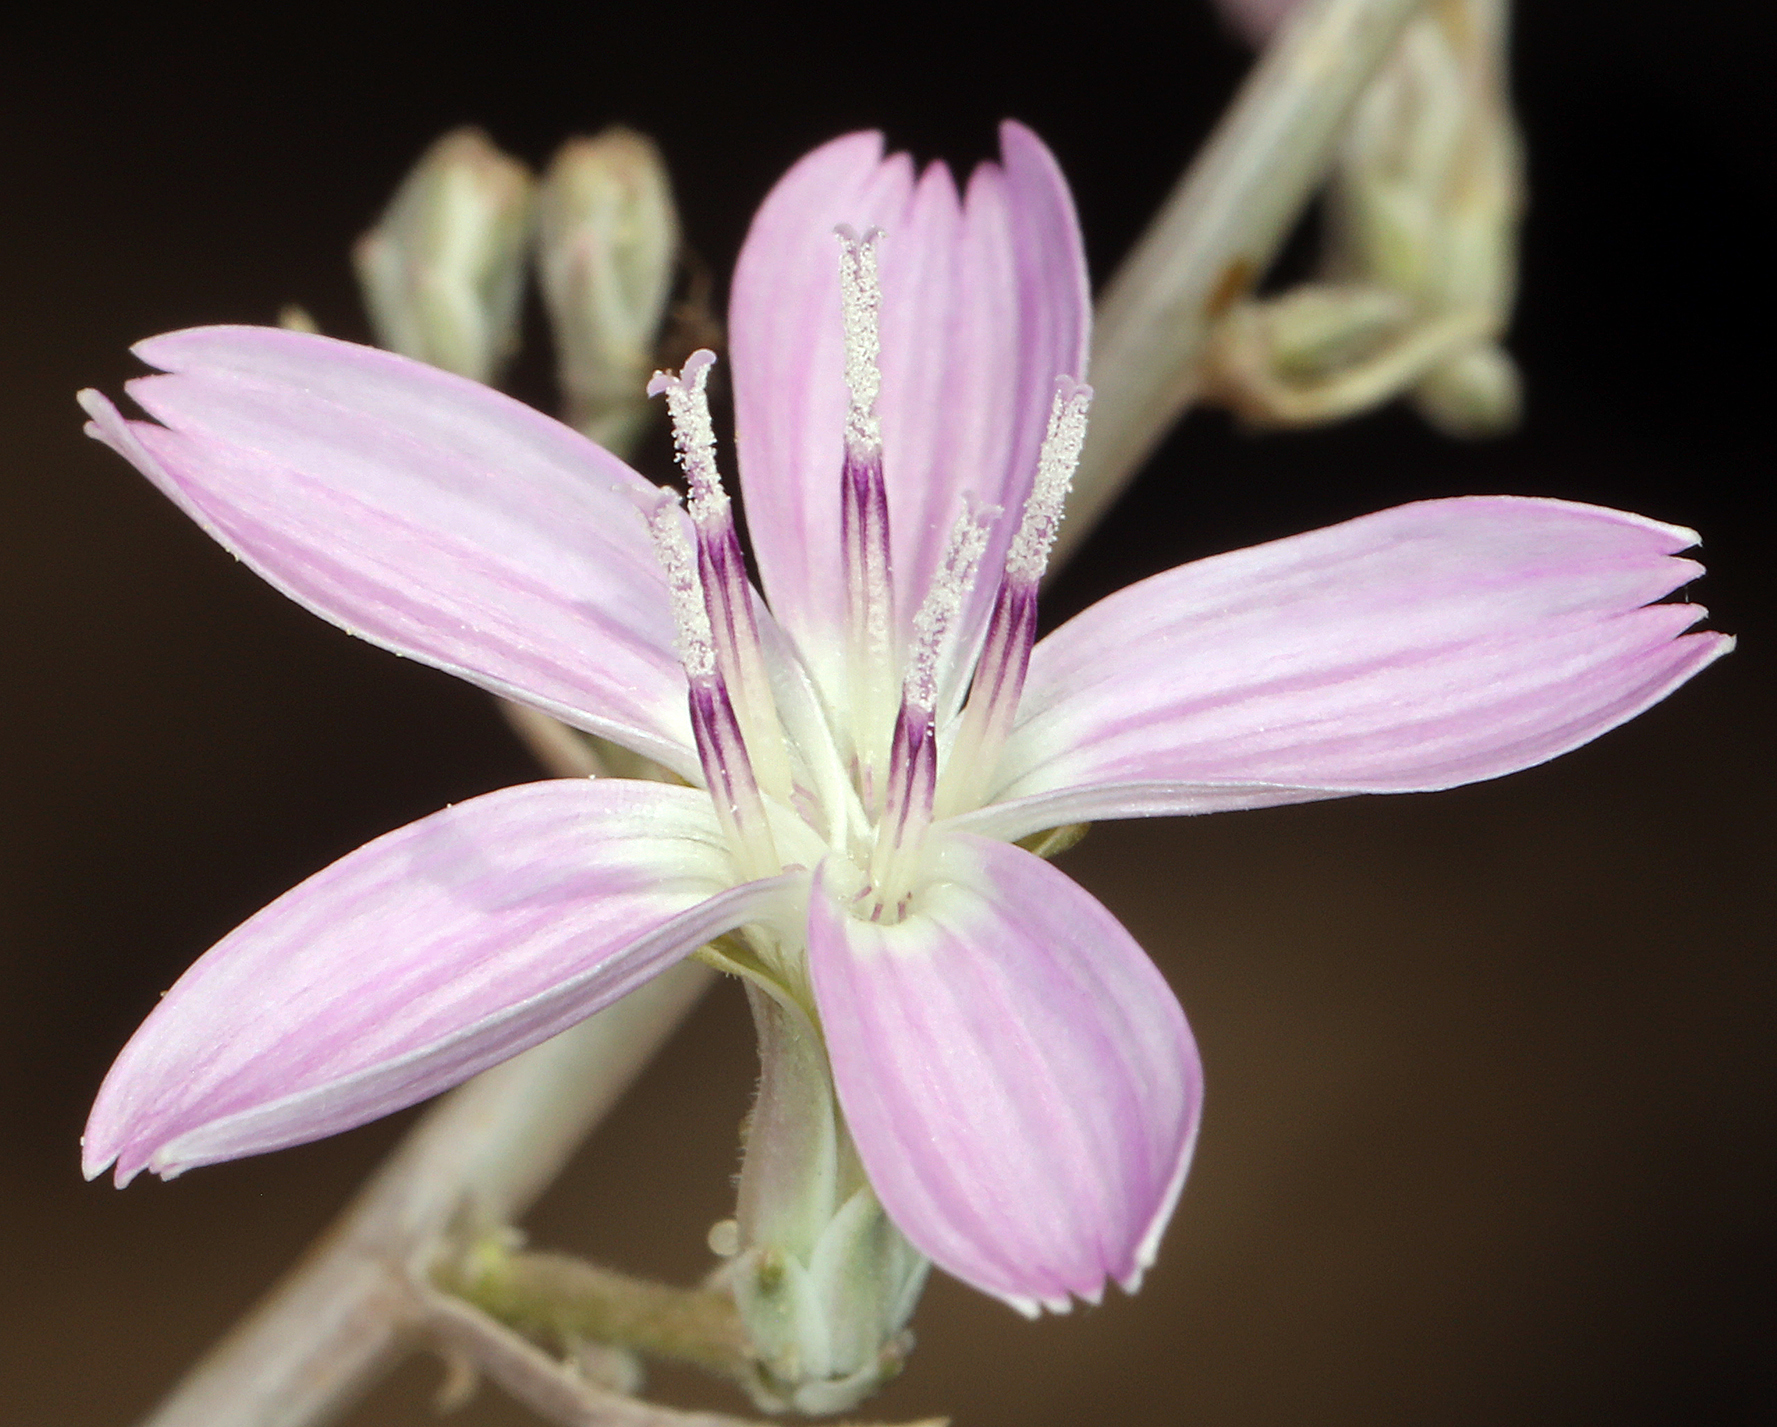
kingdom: Plantae
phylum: Tracheophyta
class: Magnoliopsida
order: Asterales
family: Asteraceae
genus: Stephanomeria
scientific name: Stephanomeria exigua
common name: Small wirelettuce
